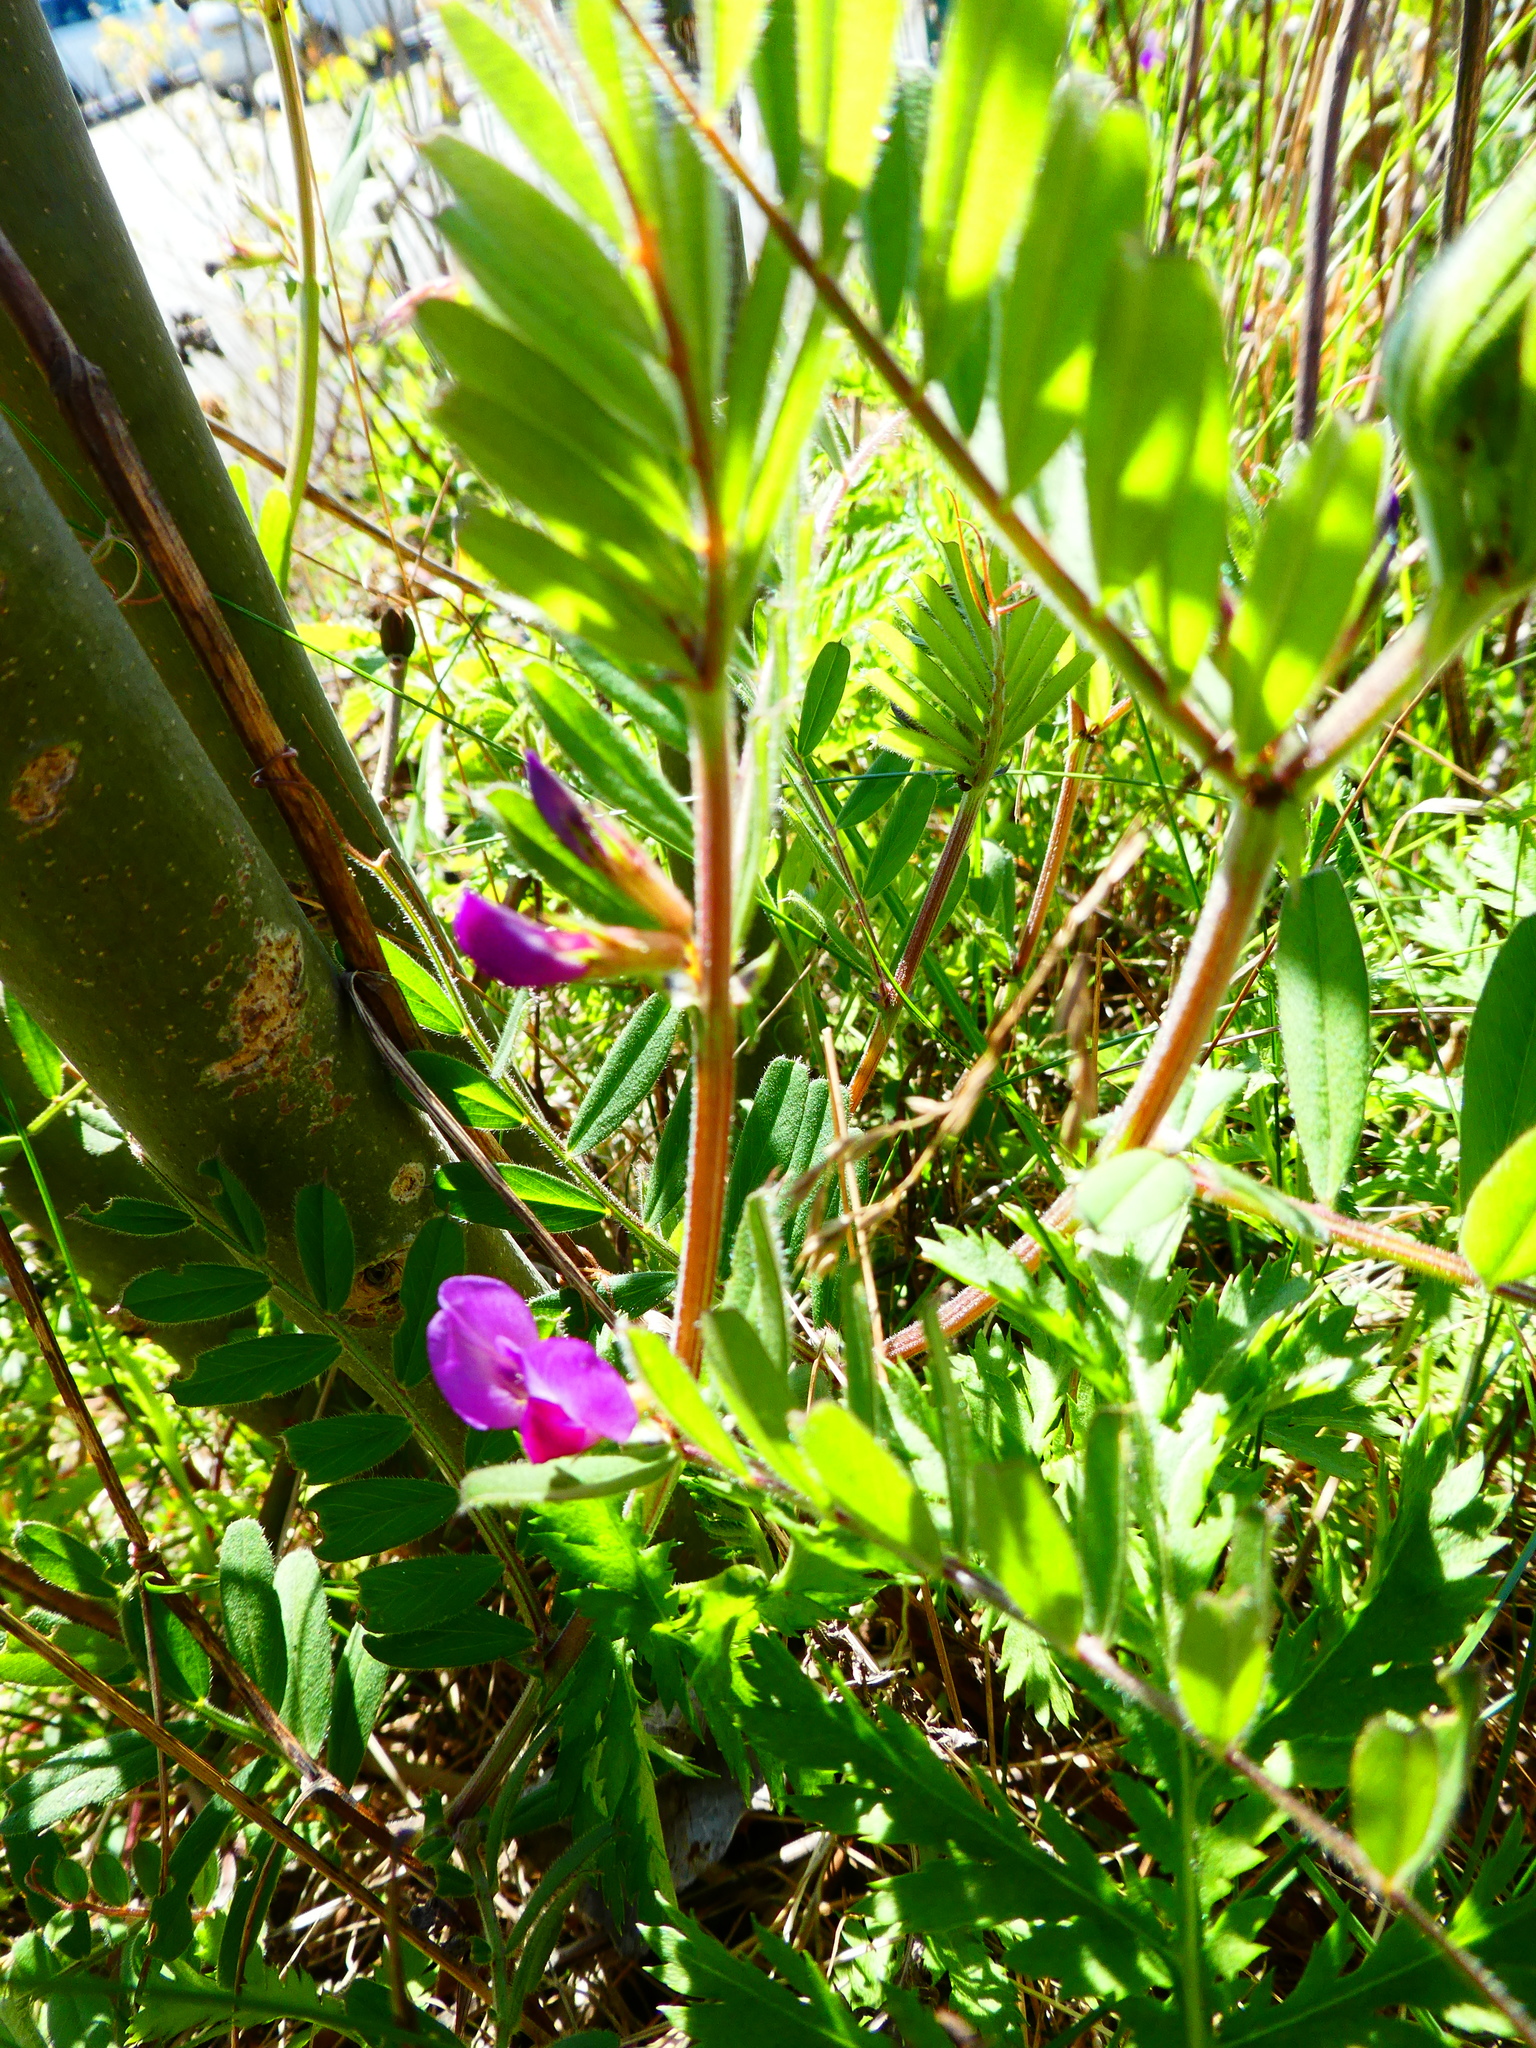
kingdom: Plantae
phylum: Tracheophyta
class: Magnoliopsida
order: Fabales
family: Fabaceae
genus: Vicia
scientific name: Vicia sativa
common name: Garden vetch
